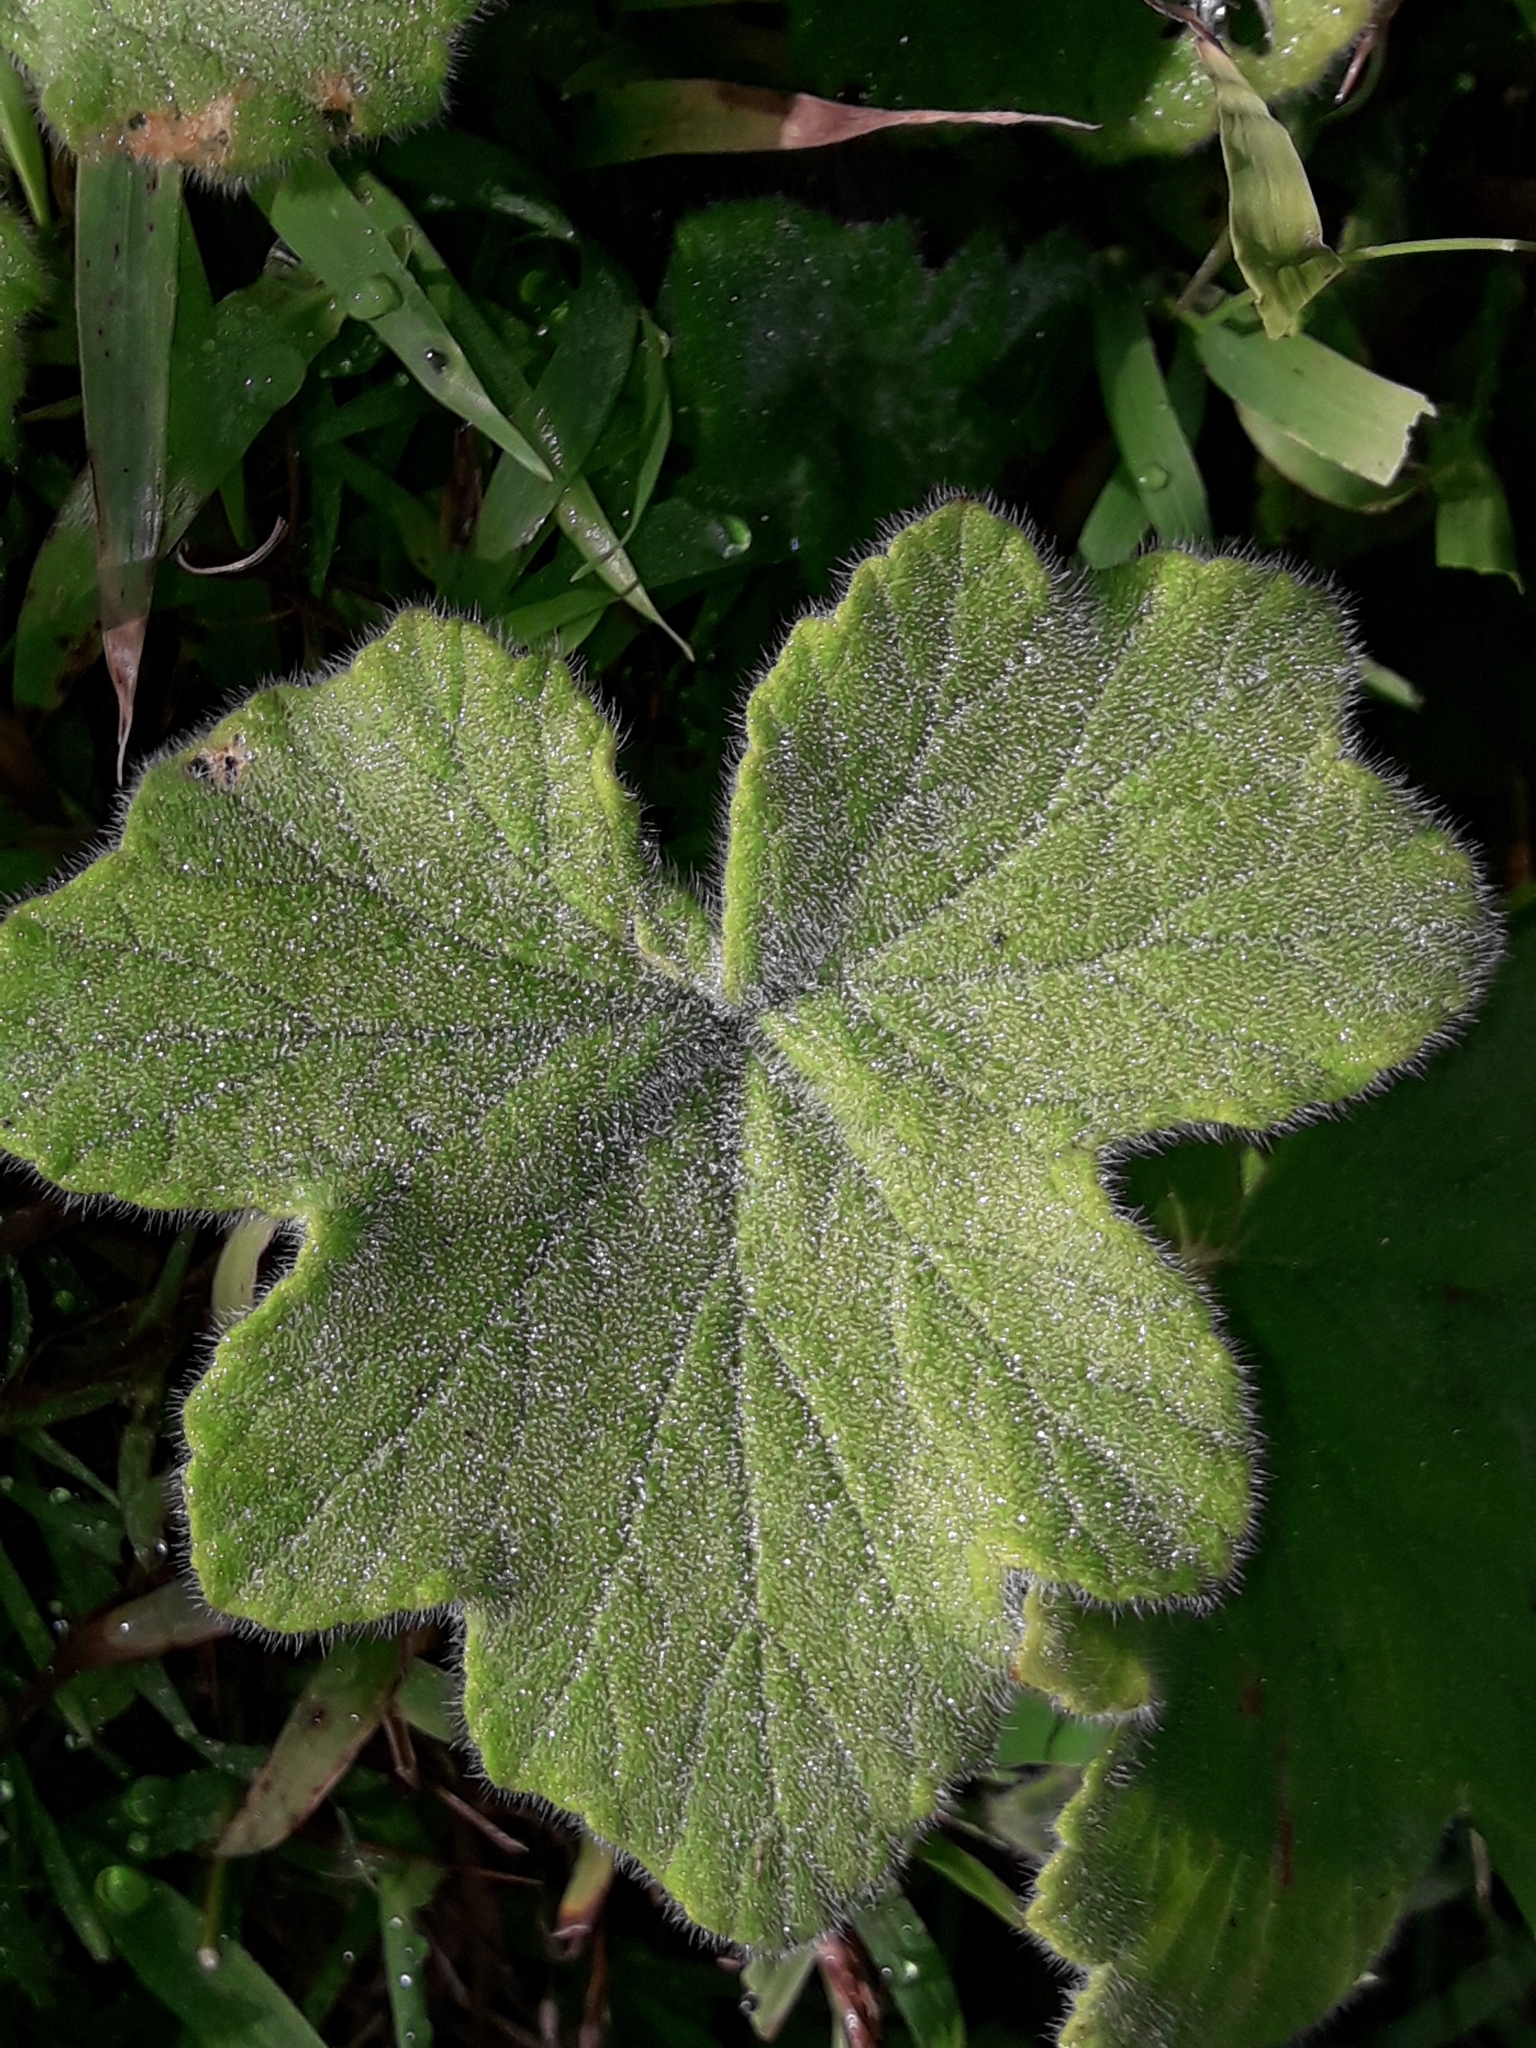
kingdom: Plantae
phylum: Tracheophyta
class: Magnoliopsida
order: Geraniales
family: Geraniaceae
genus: Pelargonium
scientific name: Pelargonium tomentosum
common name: Peppermint-scented geranium
